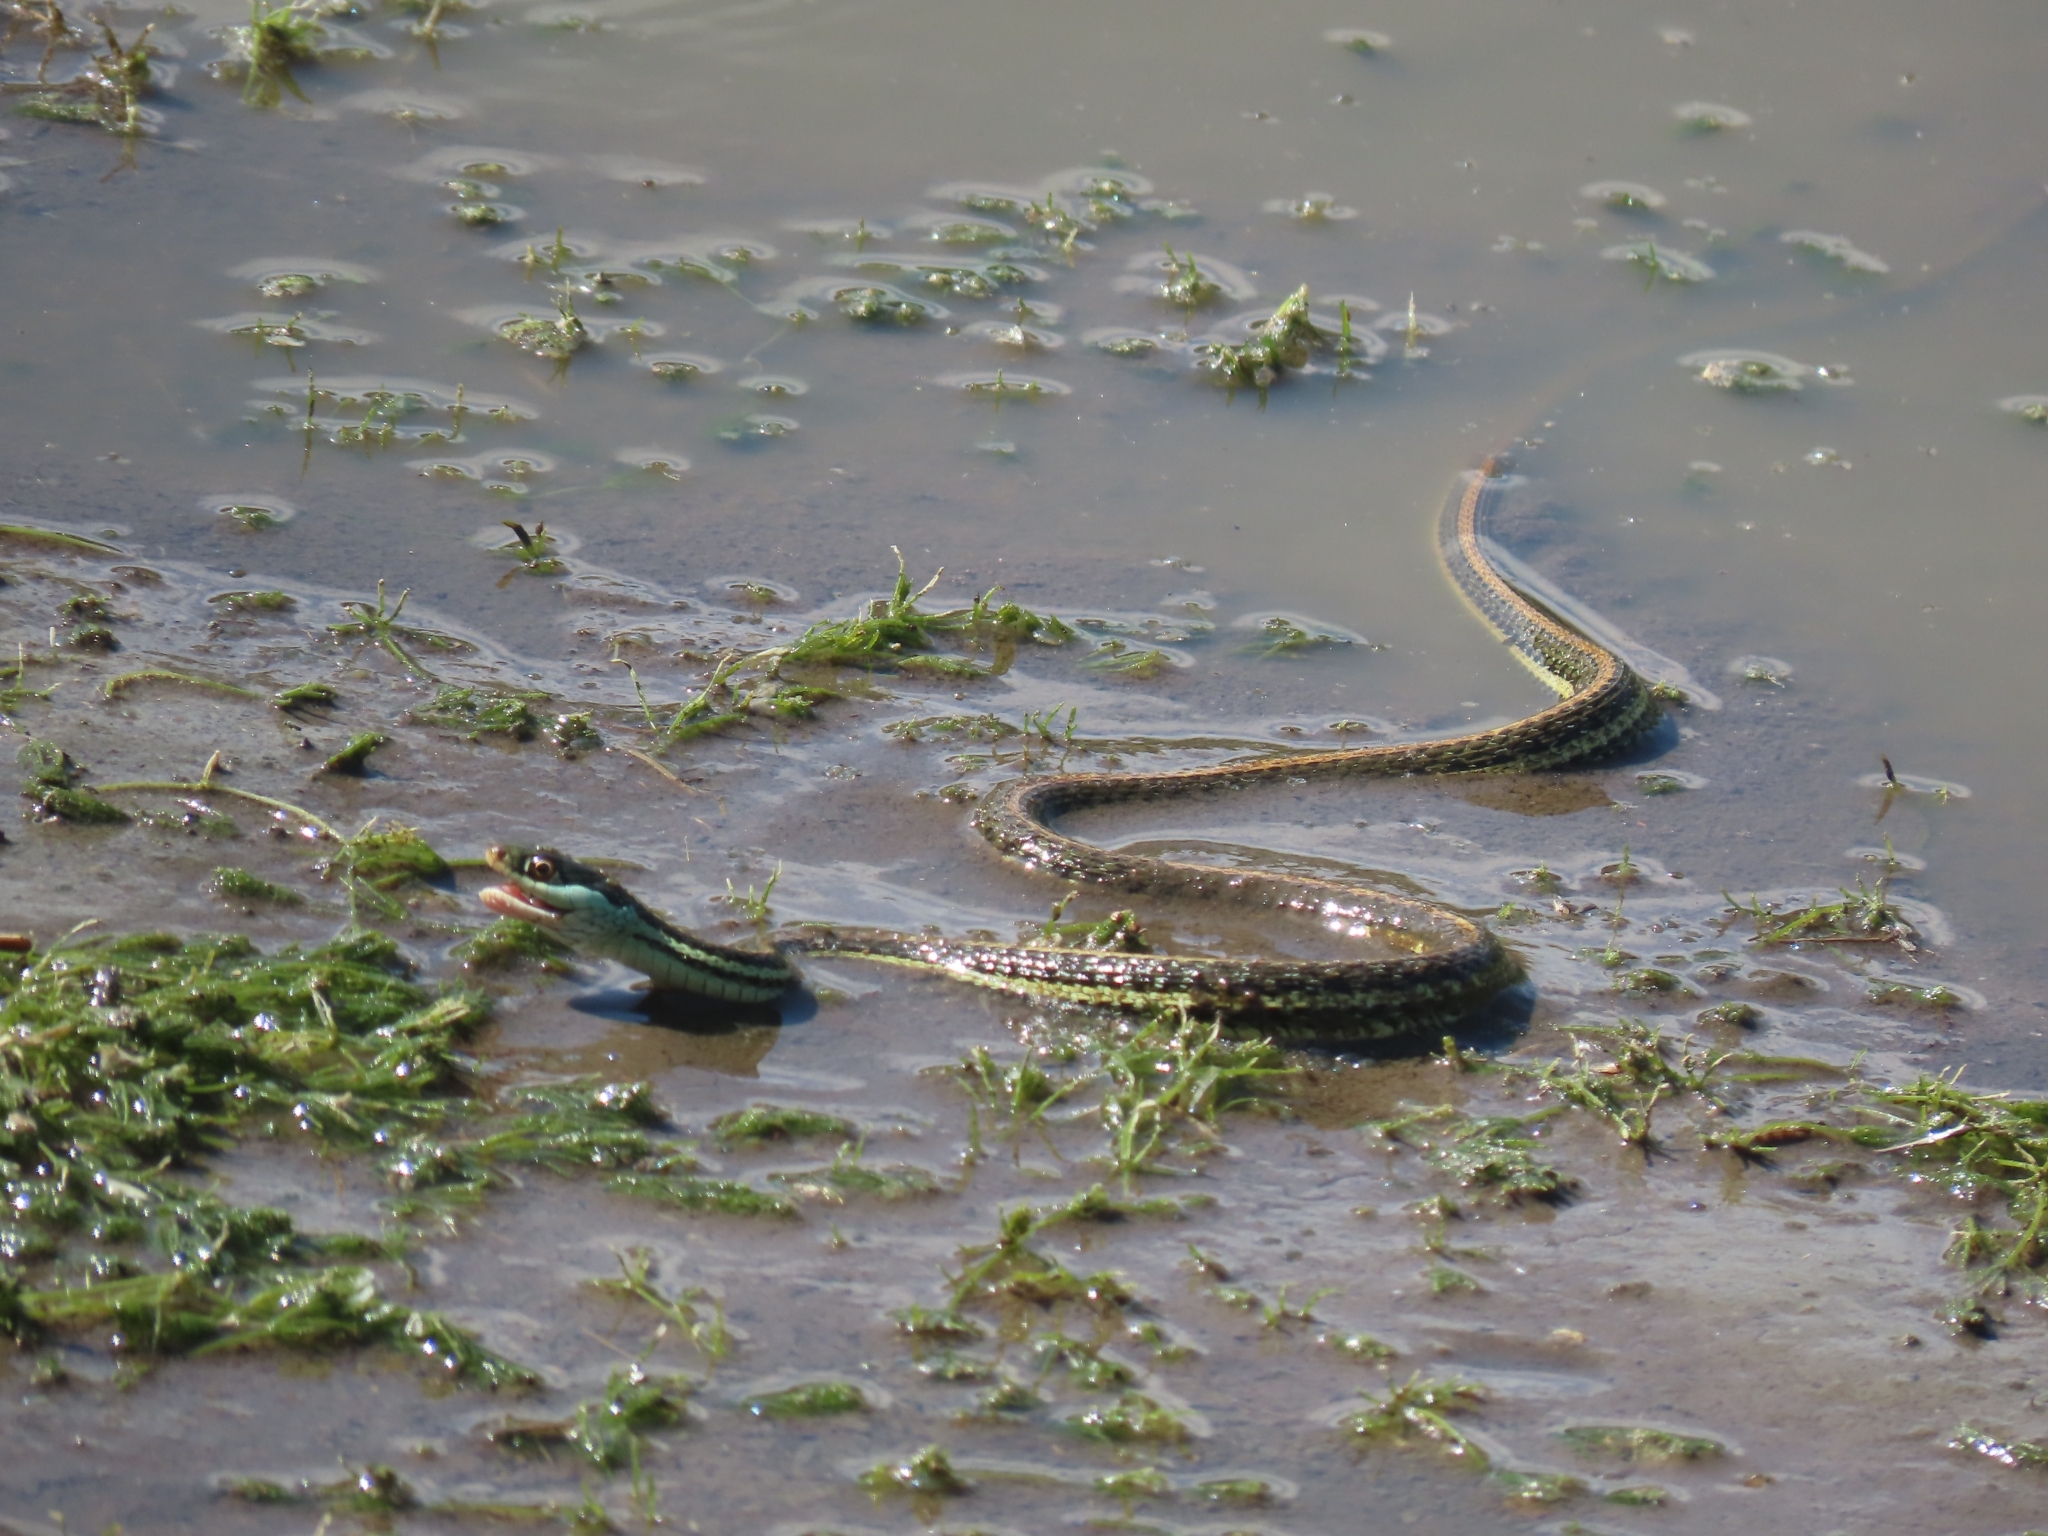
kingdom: Animalia
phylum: Chordata
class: Squamata
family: Colubridae
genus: Thamnophis
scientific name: Thamnophis proximus
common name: Western ribbon snake
